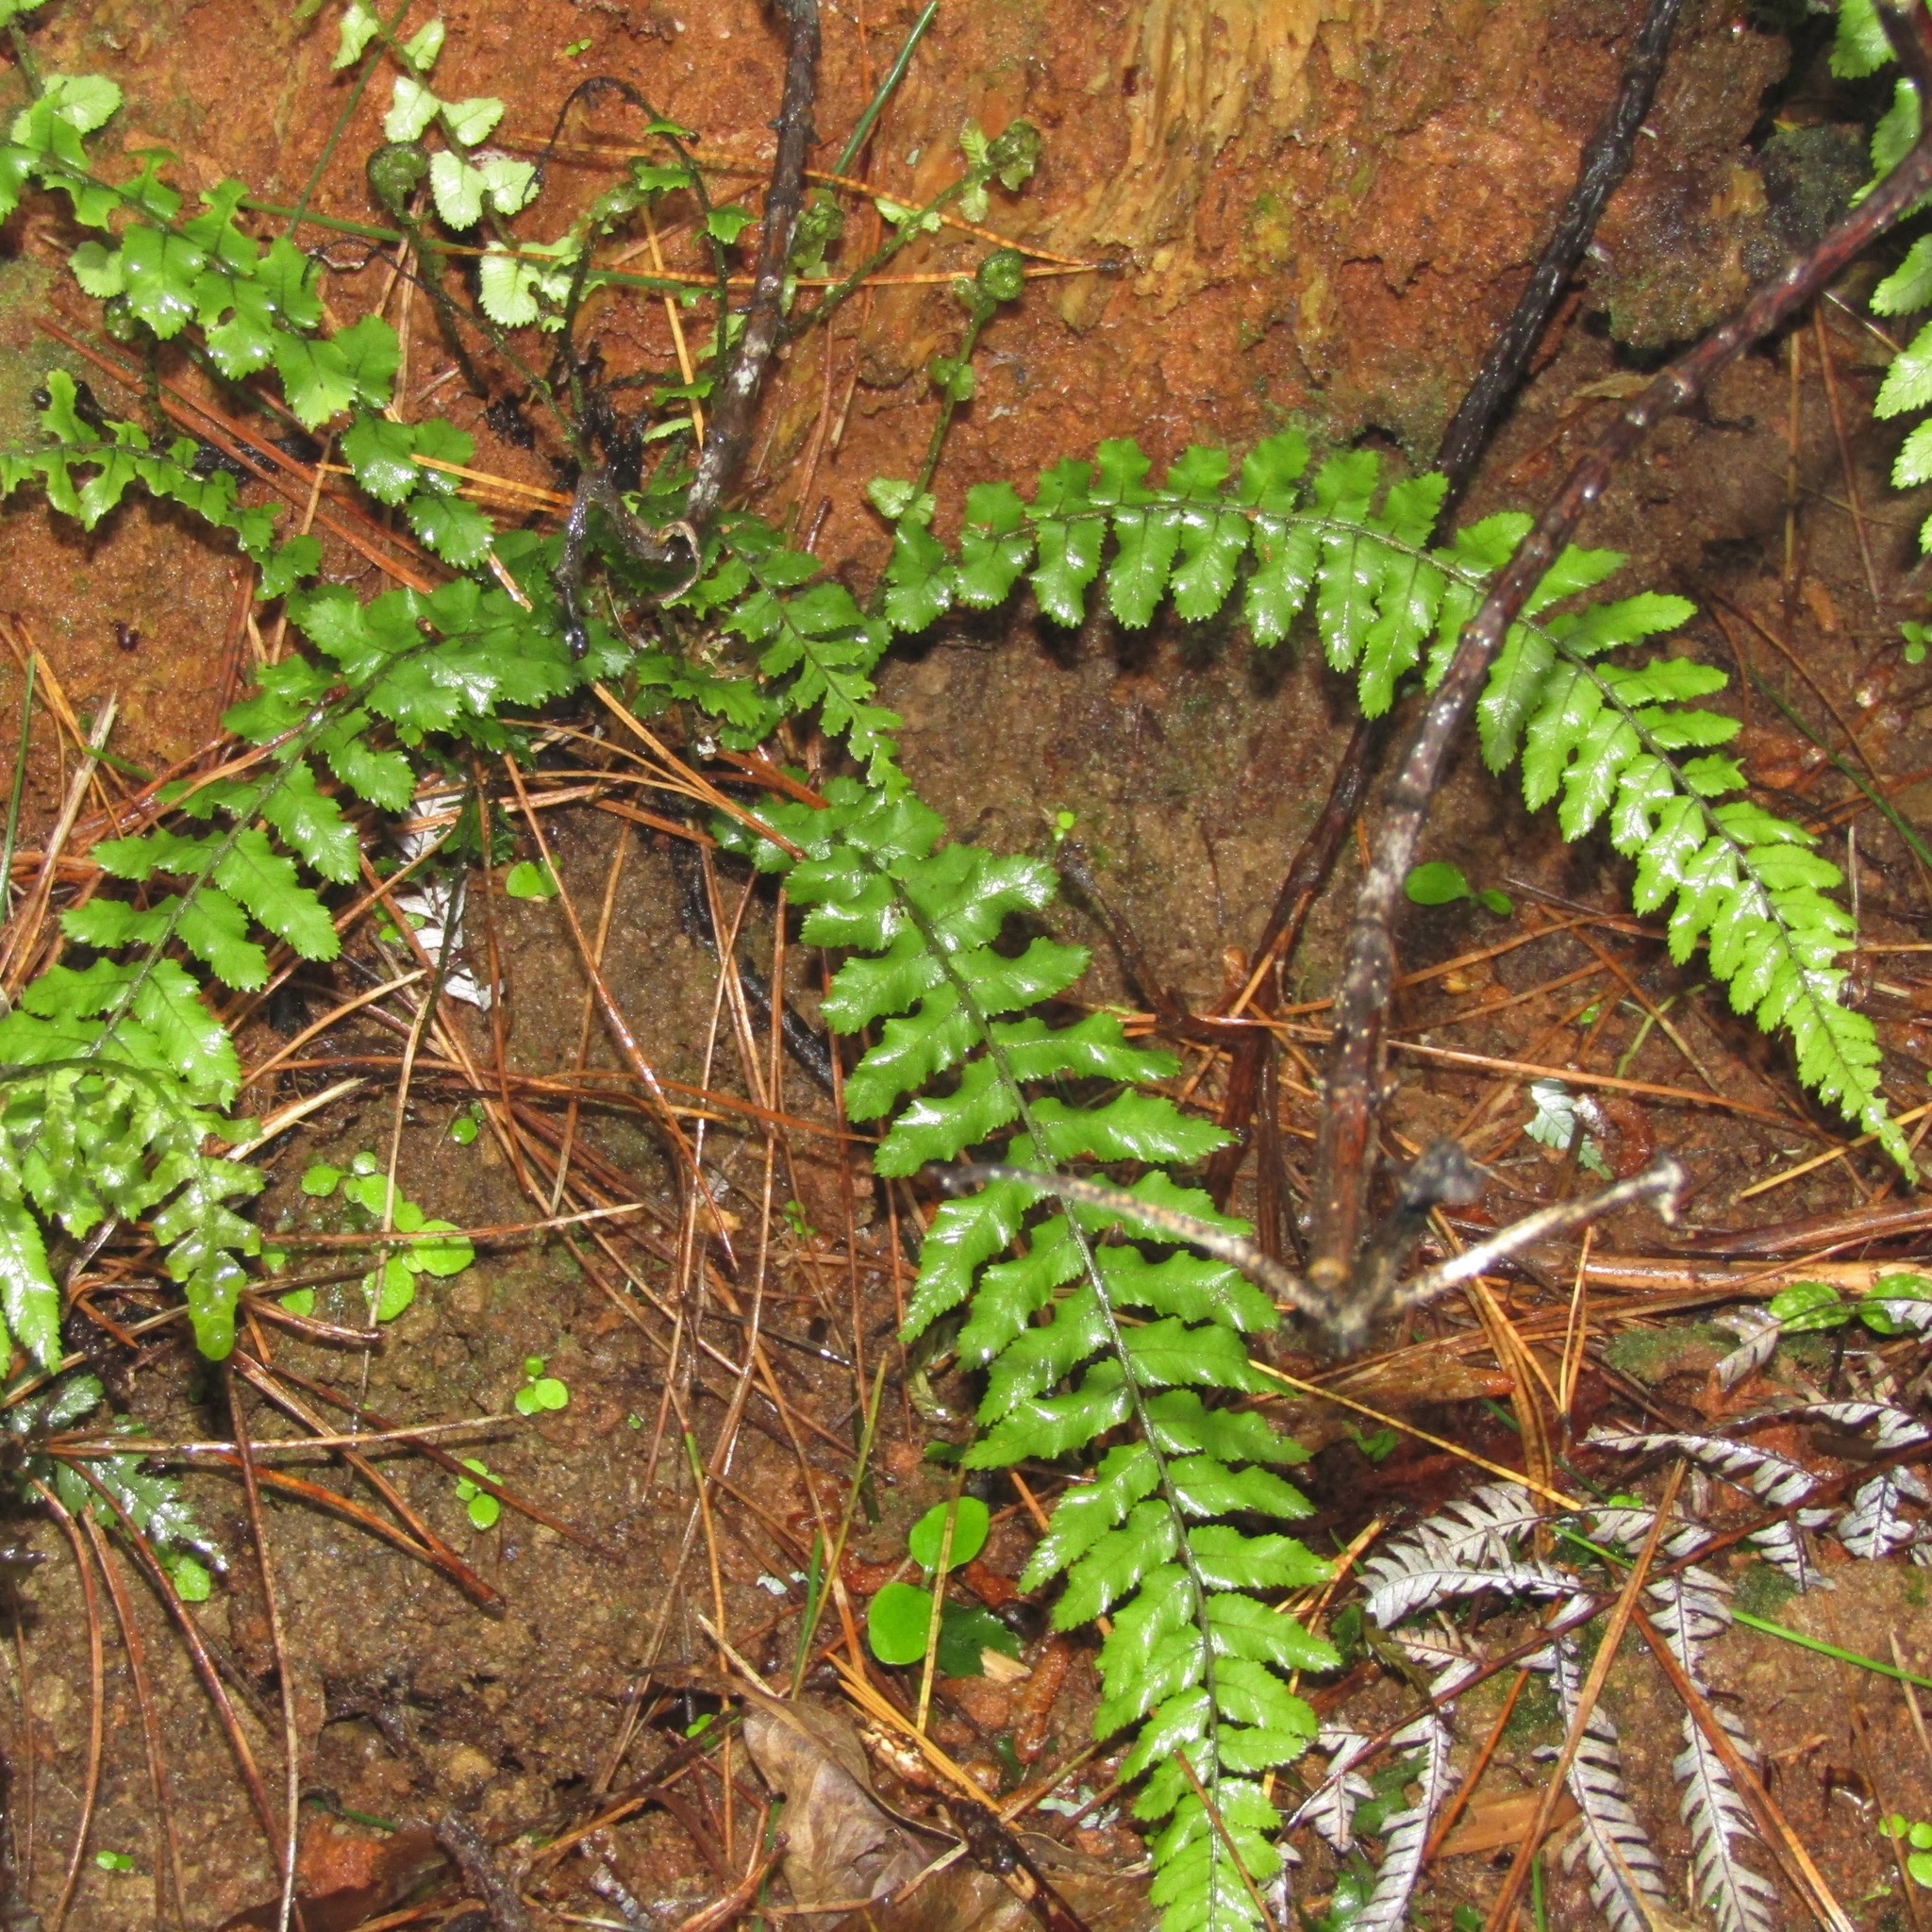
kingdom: Plantae
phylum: Tracheophyta
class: Polypodiopsida
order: Polypodiales
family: Blechnaceae
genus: Icarus
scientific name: Icarus filiformis
